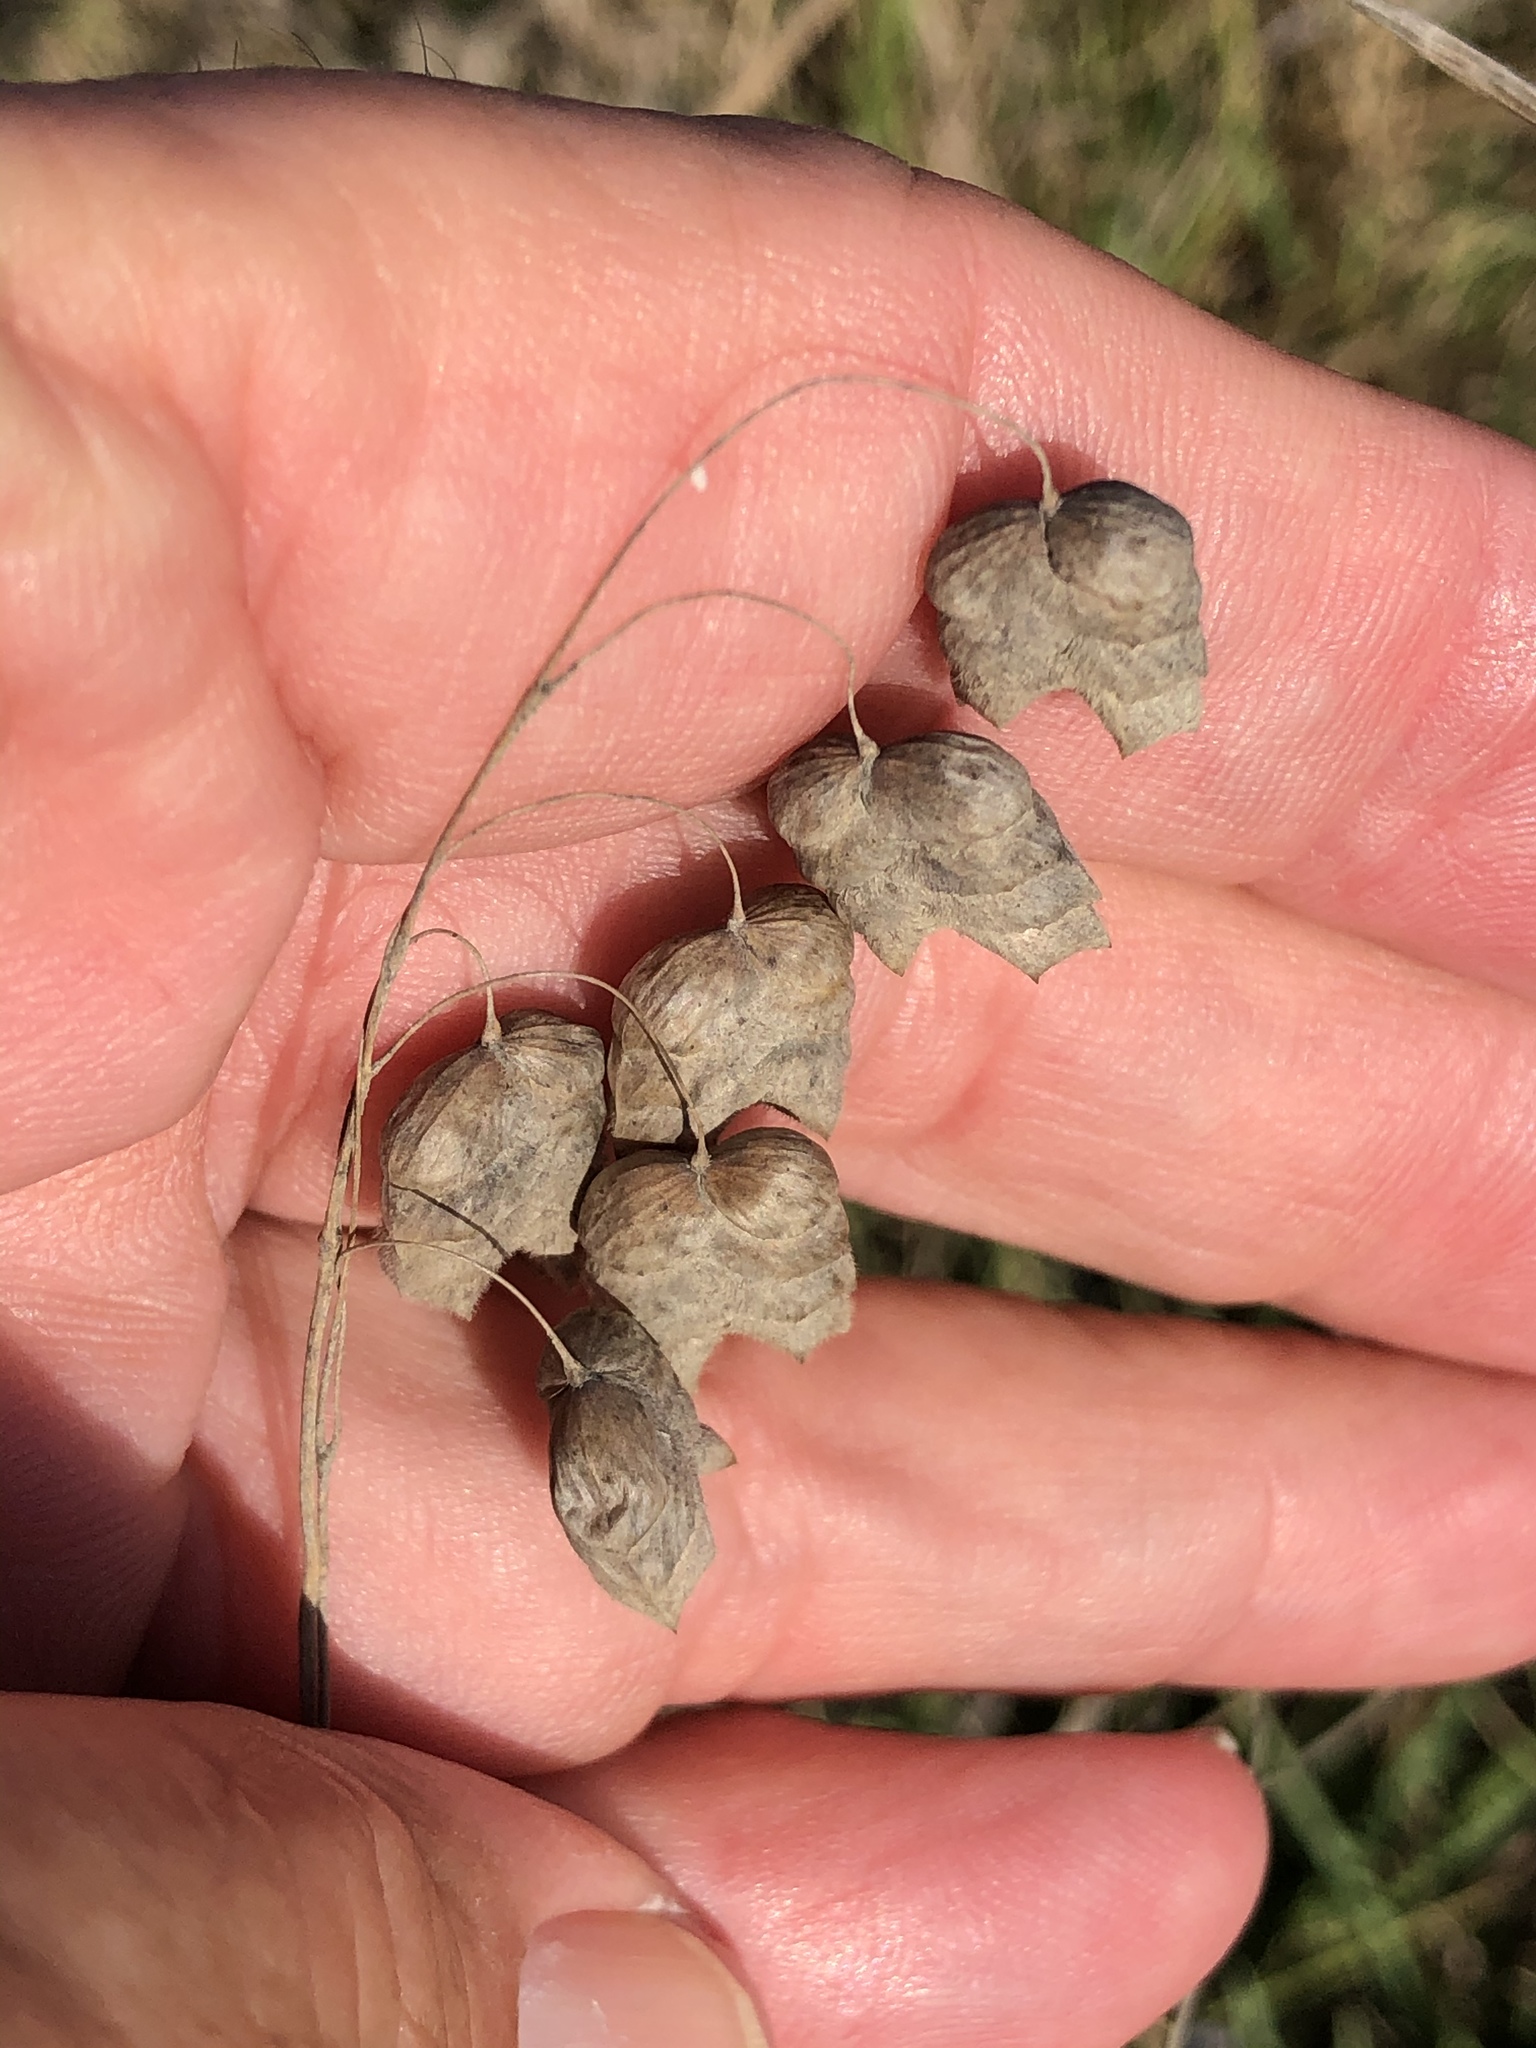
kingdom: Plantae
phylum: Tracheophyta
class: Liliopsida
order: Poales
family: Poaceae
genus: Briza
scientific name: Briza maxima
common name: Big quakinggrass
